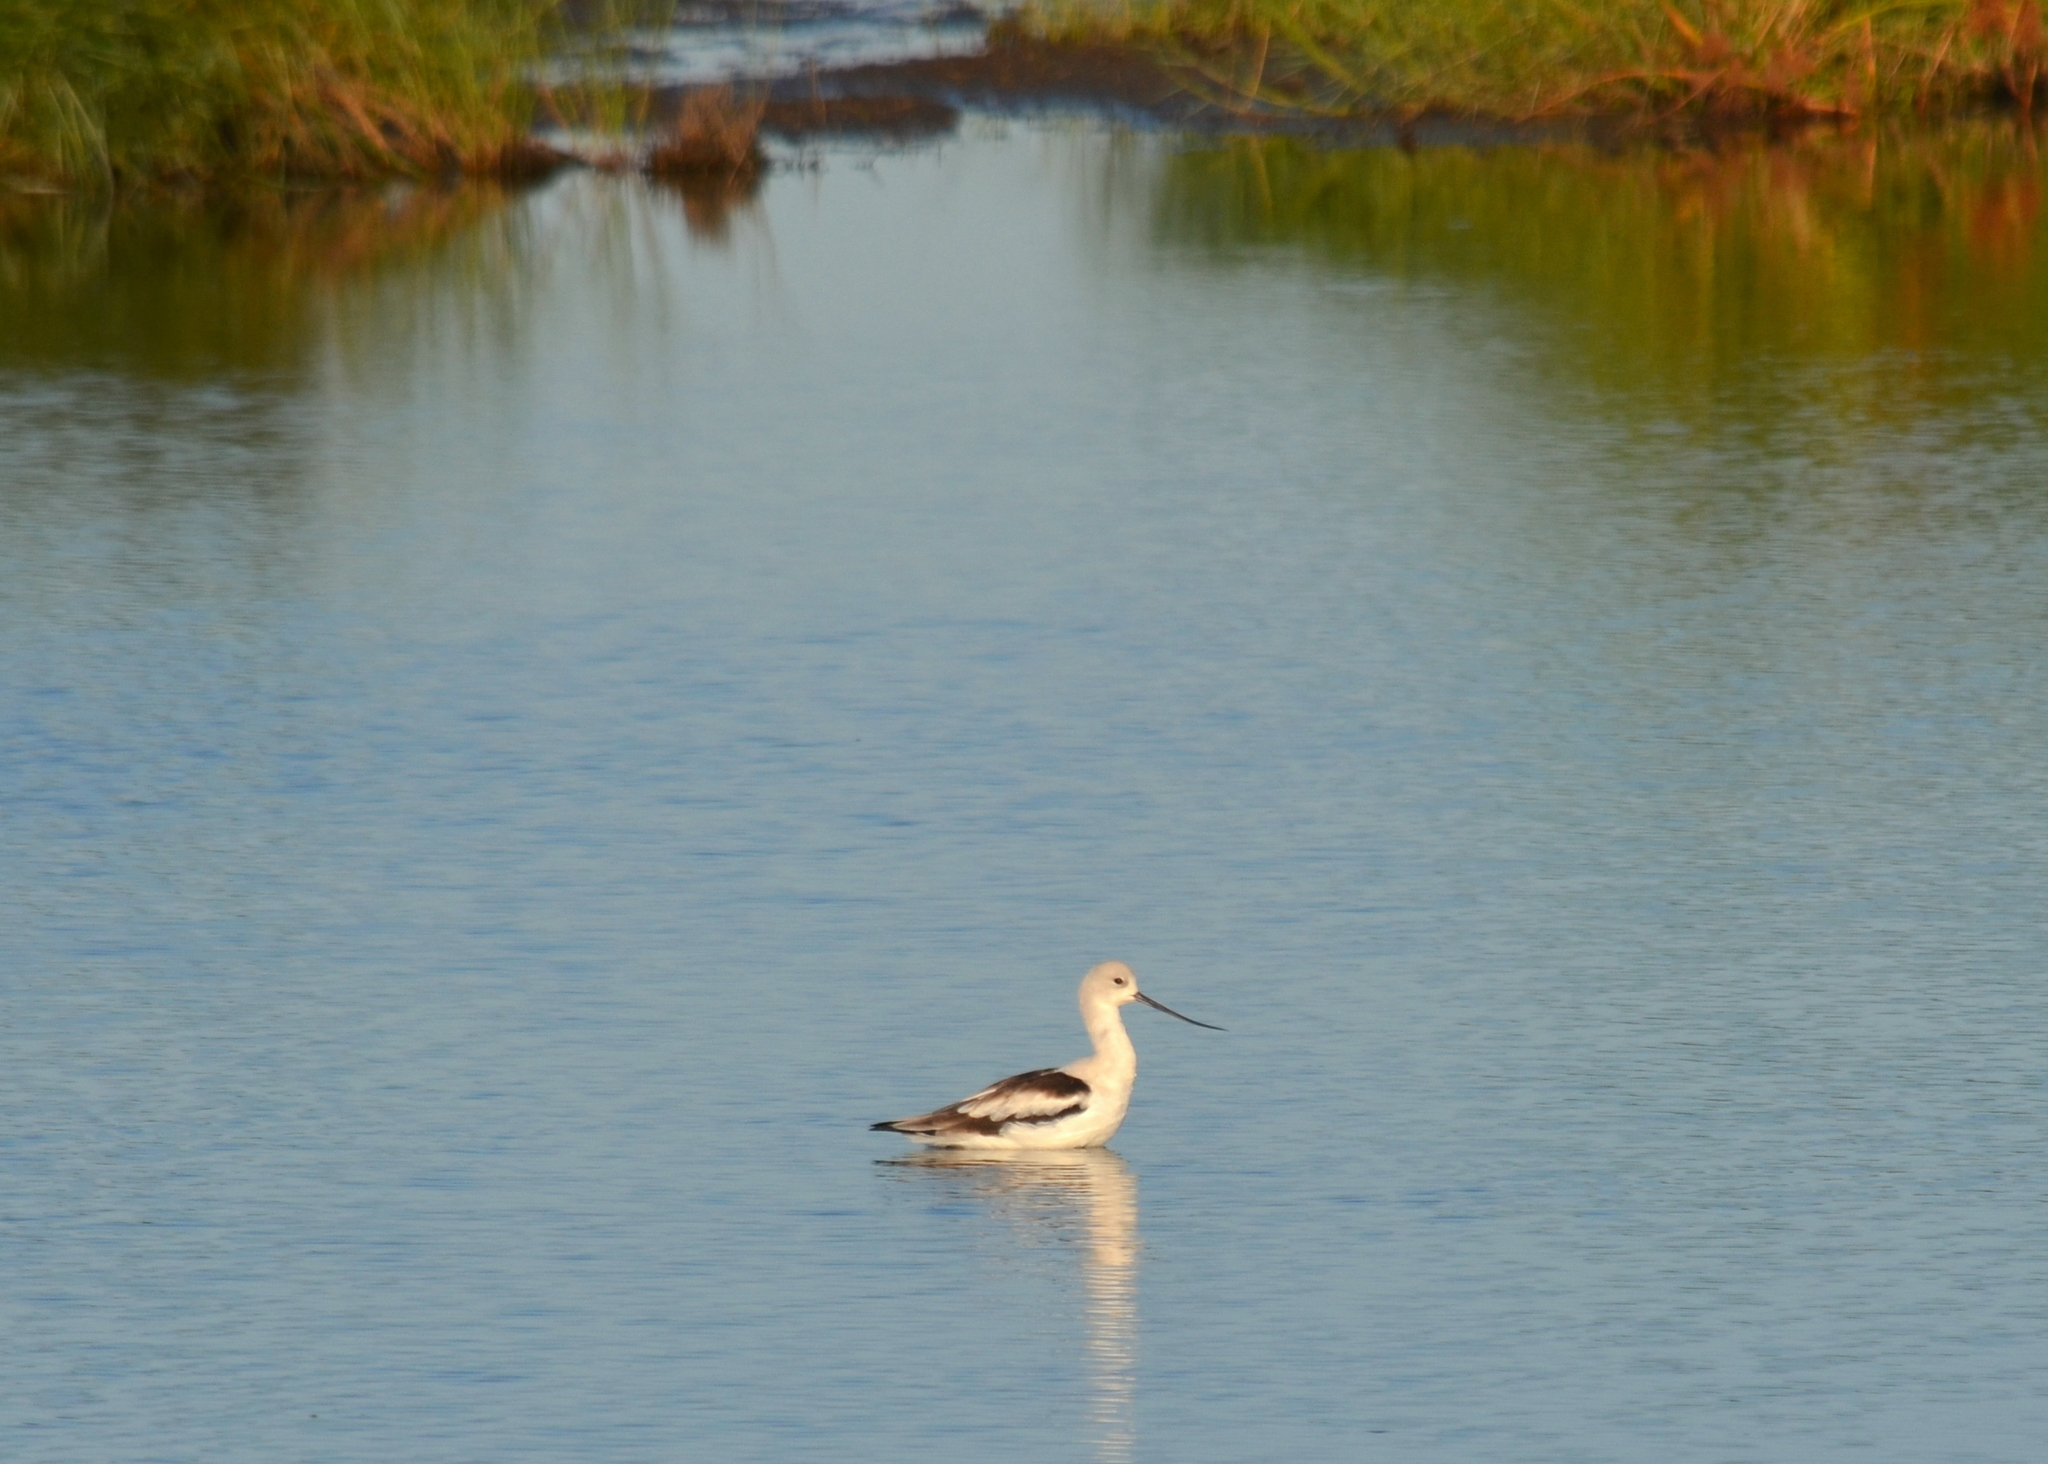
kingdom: Animalia
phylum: Chordata
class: Aves
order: Charadriiformes
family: Recurvirostridae
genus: Recurvirostra
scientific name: Recurvirostra americana
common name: American avocet
